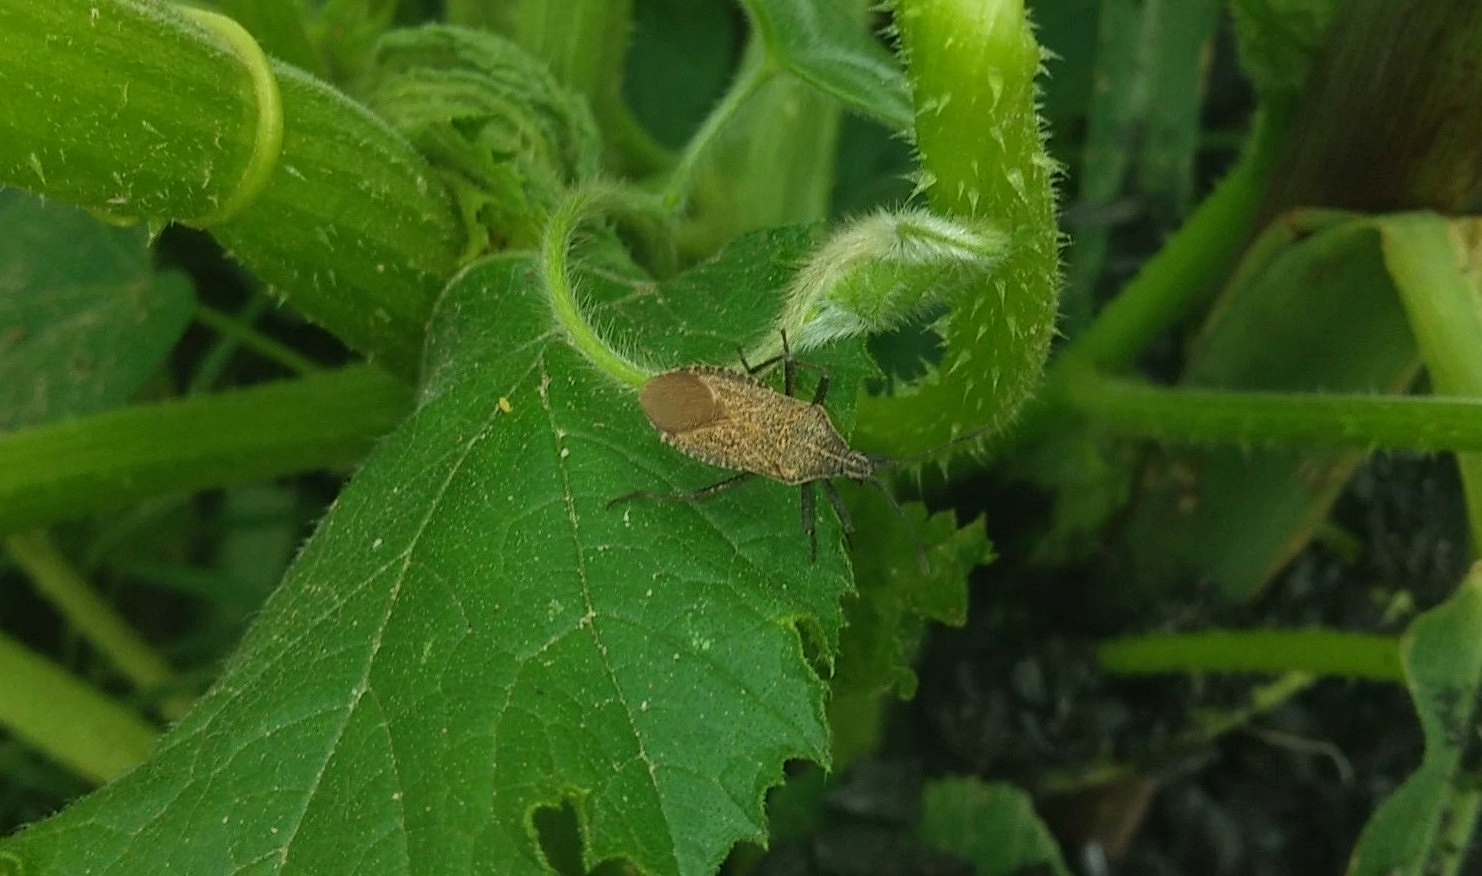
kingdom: Animalia
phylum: Arthropoda
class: Insecta
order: Hemiptera
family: Coreidae
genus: Anasa
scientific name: Anasa uhleri
